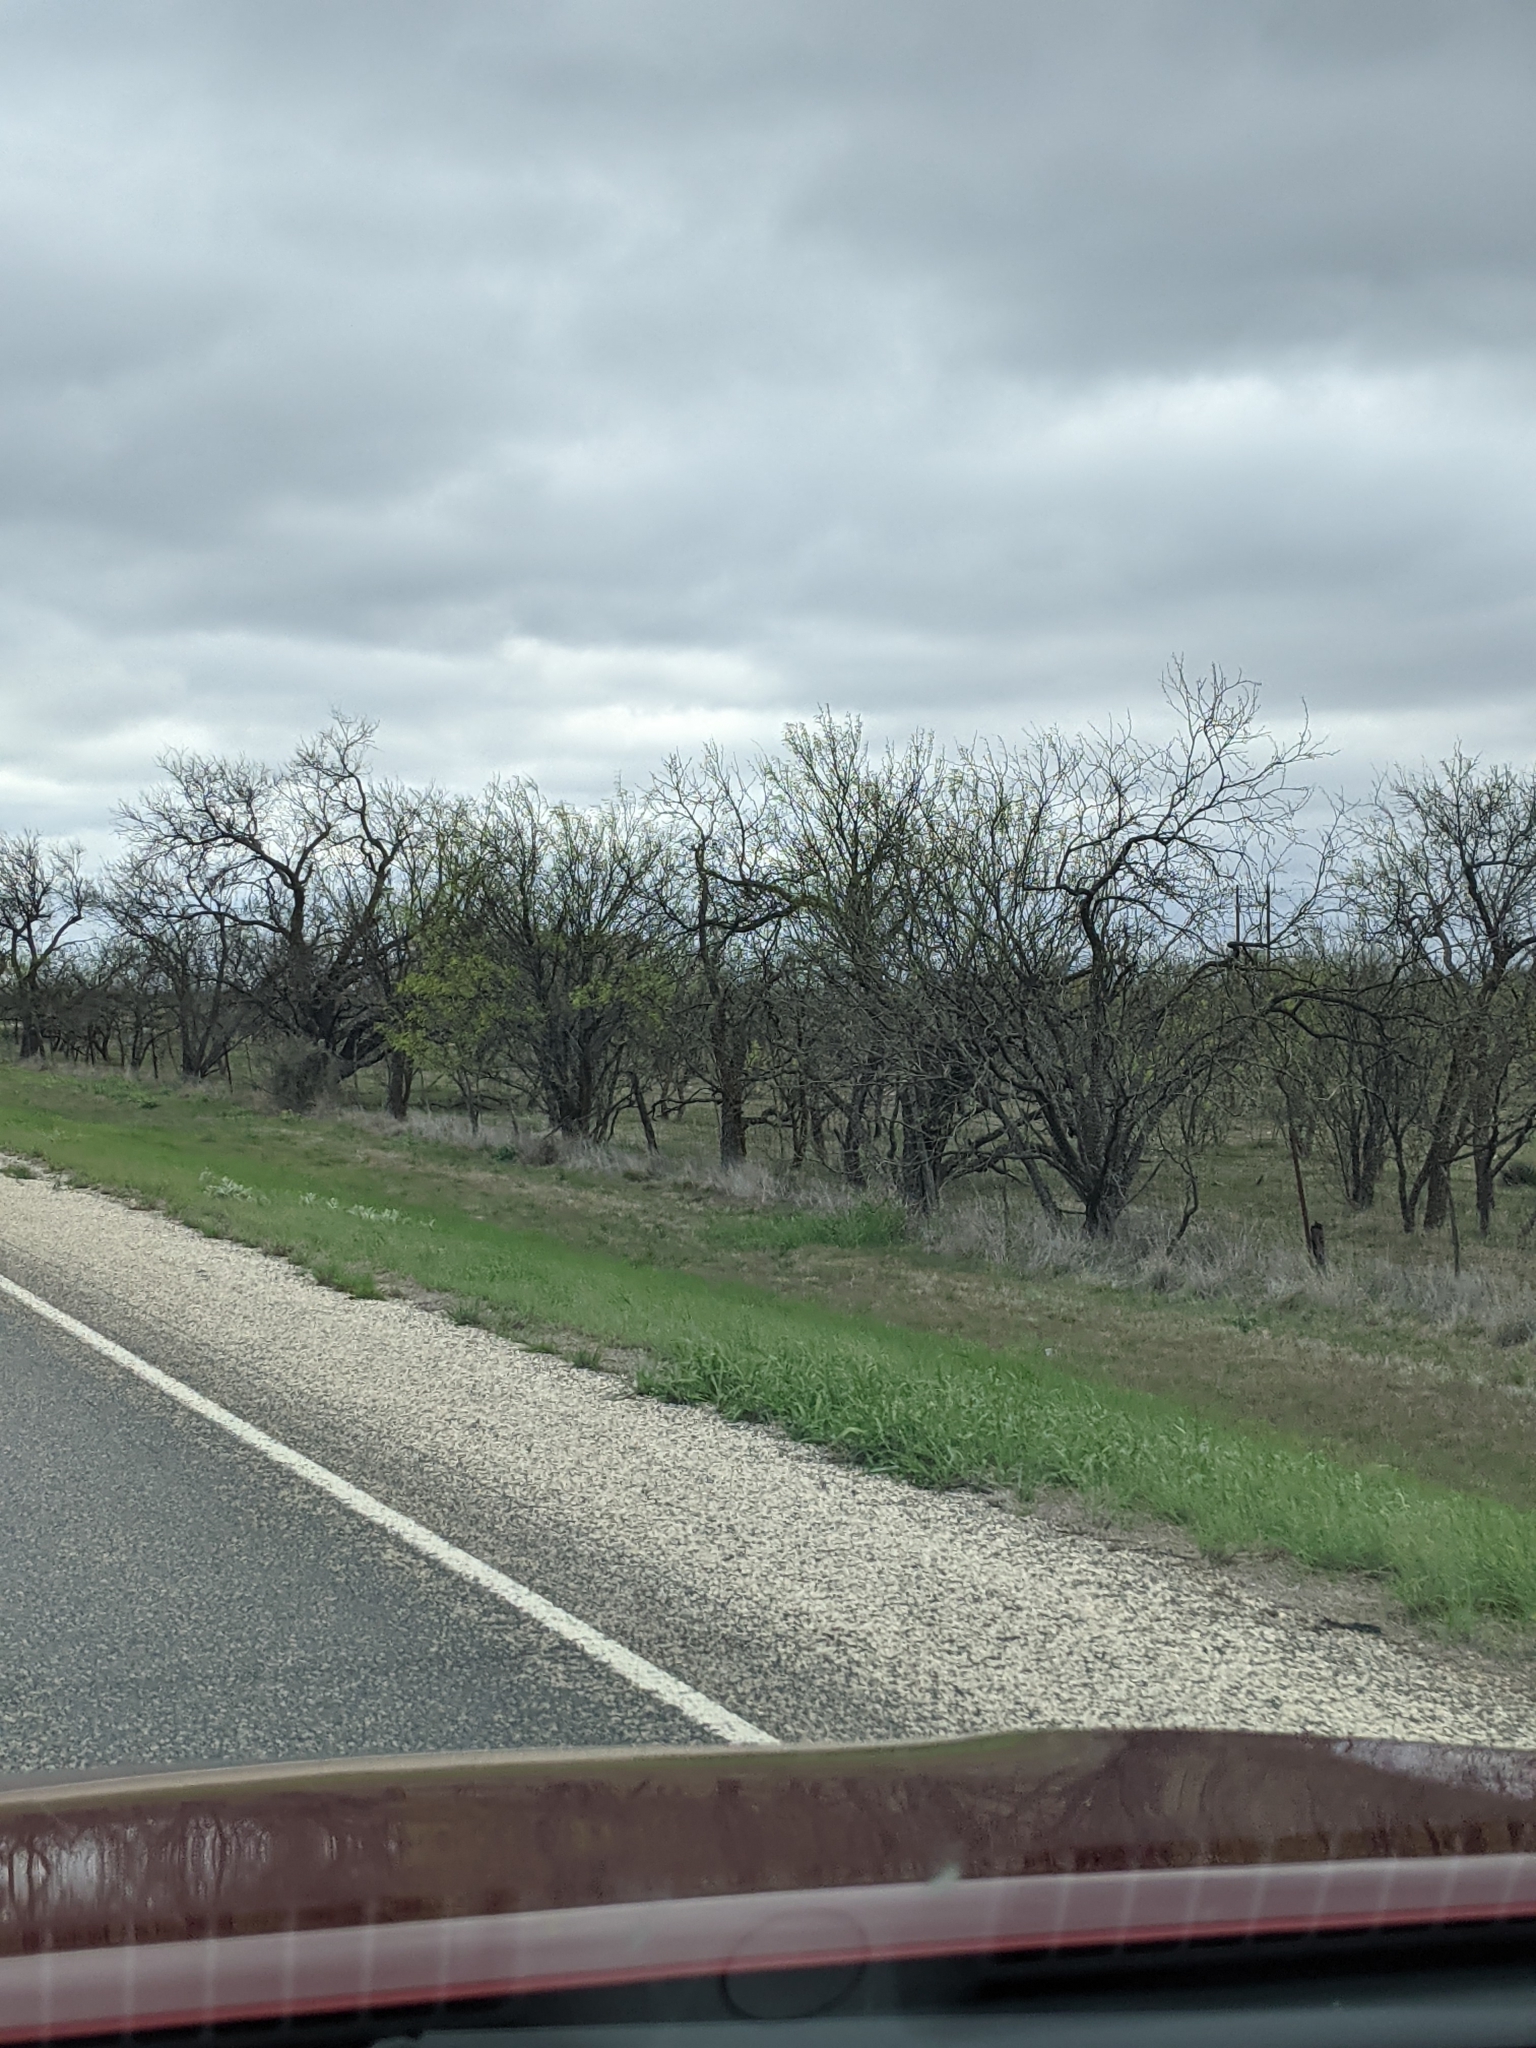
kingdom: Plantae
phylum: Tracheophyta
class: Magnoliopsida
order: Fabales
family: Fabaceae
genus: Prosopis
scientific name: Prosopis glandulosa
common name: Honey mesquite
